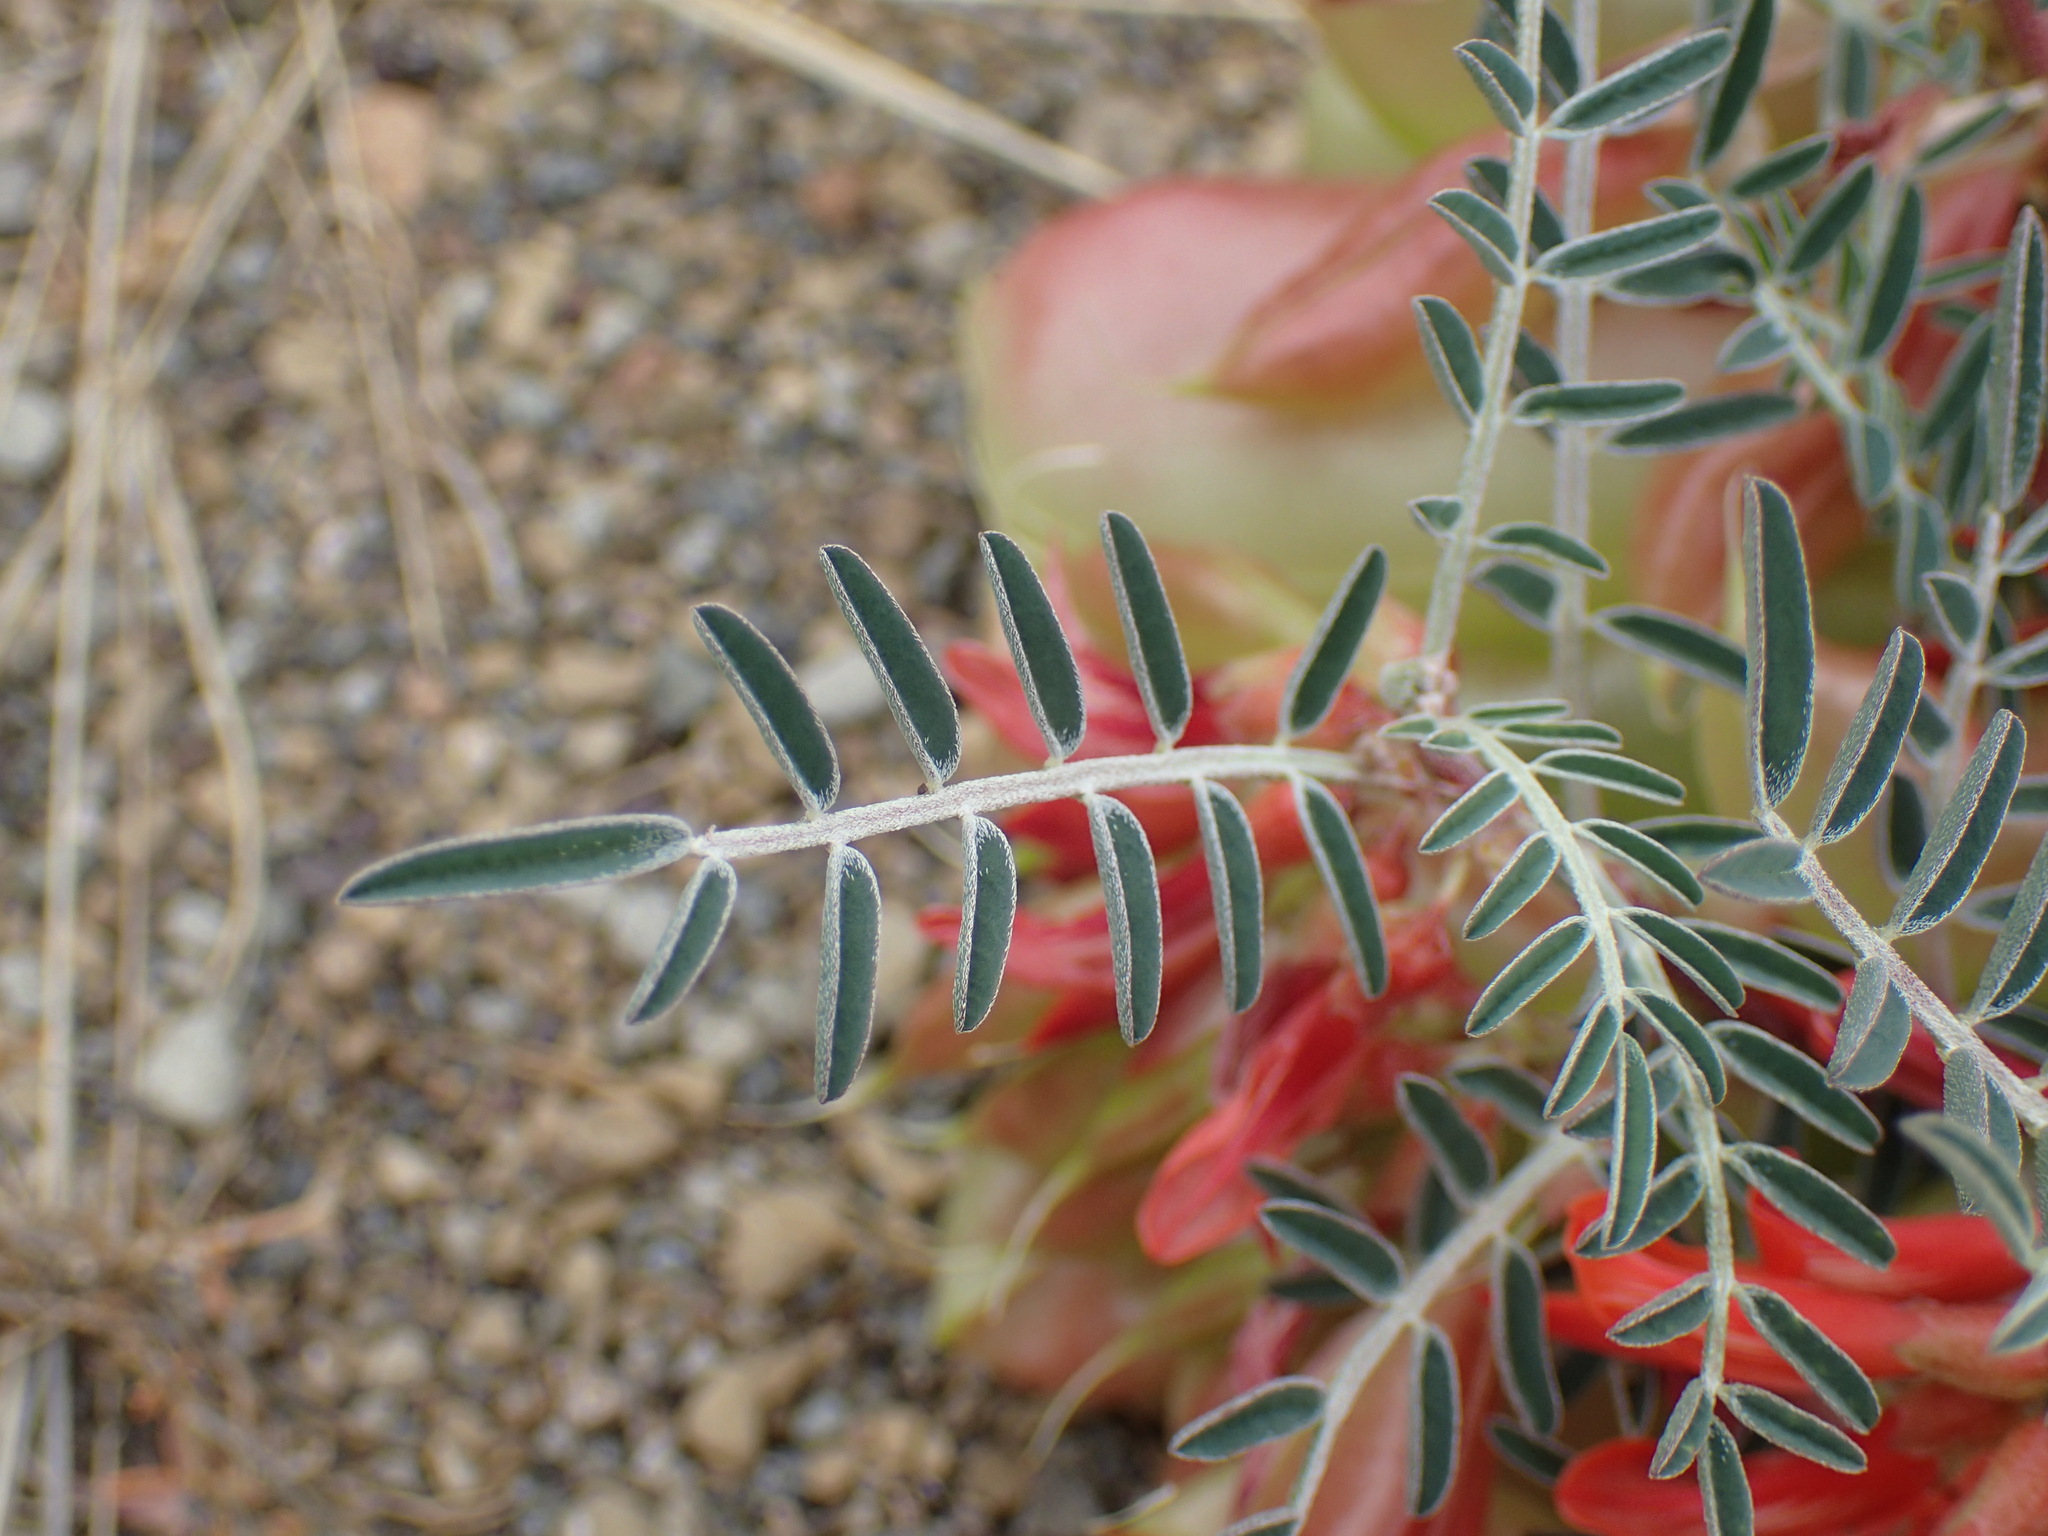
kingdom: Plantae
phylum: Tracheophyta
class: Magnoliopsida
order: Fabales
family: Fabaceae
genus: Lessertia
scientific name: Lessertia frutescens
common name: Balloon-pea
